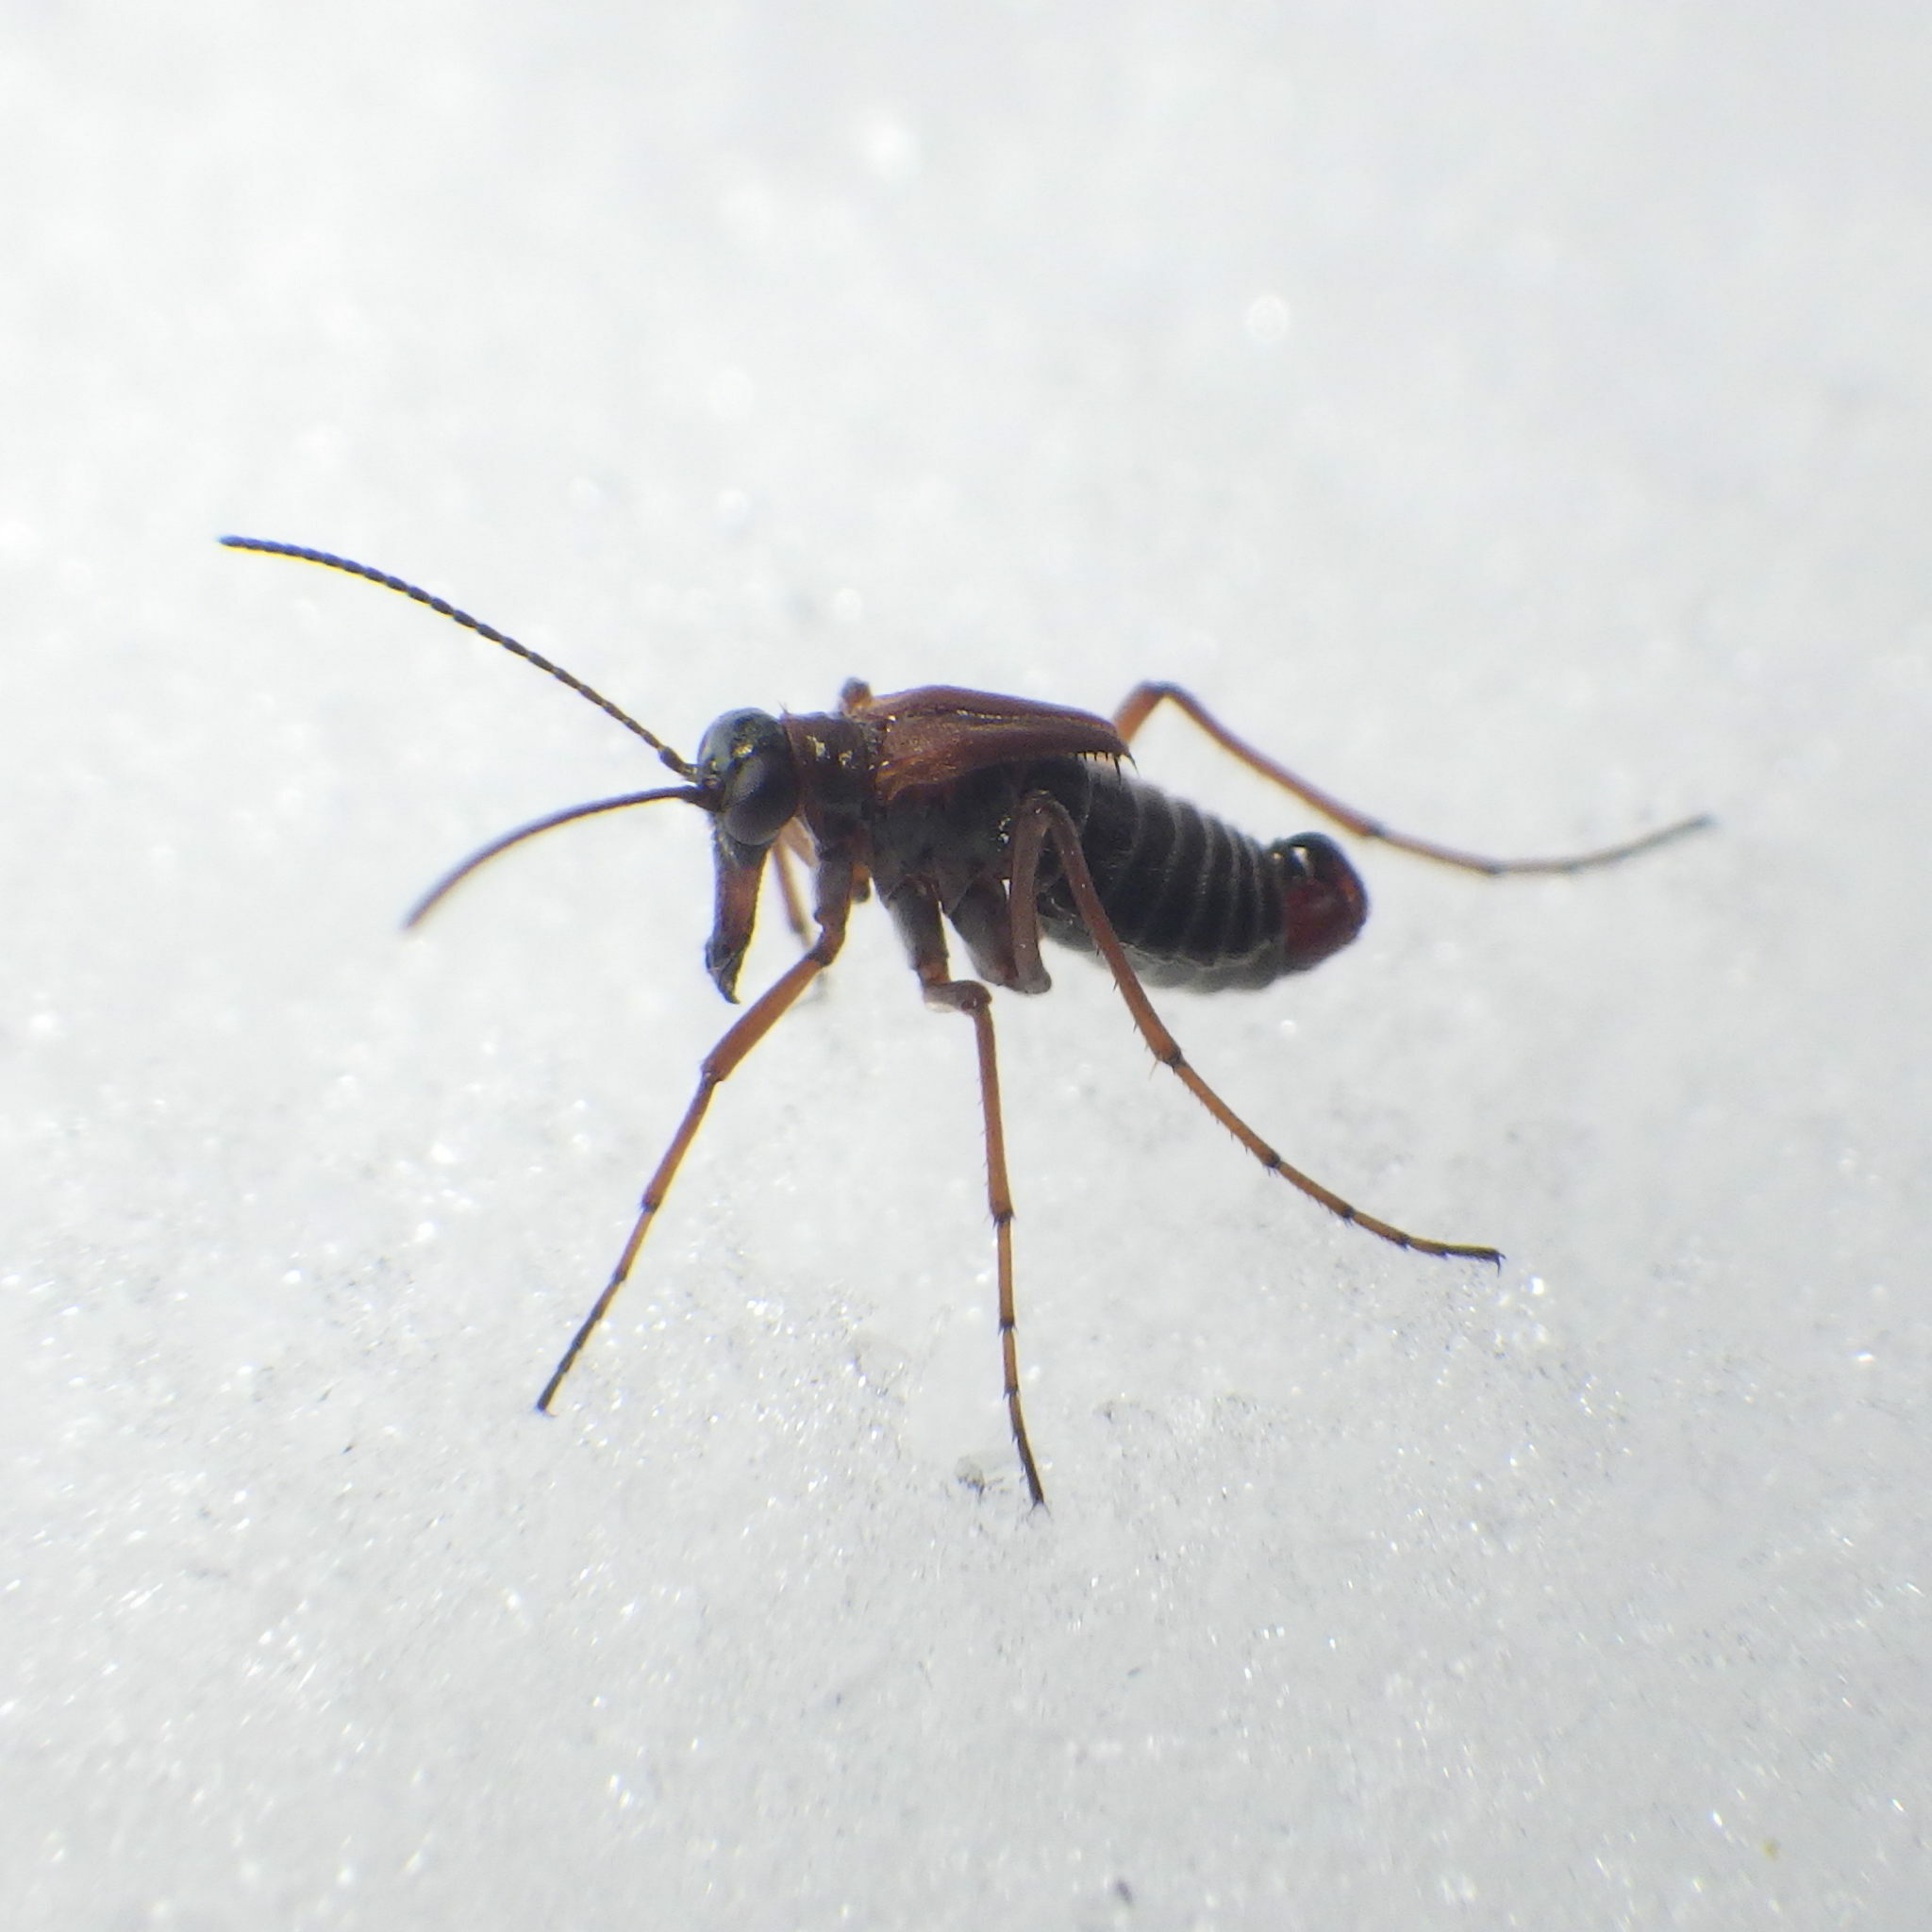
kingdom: Animalia
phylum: Arthropoda
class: Insecta
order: Mecoptera
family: Boreidae
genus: Boreus
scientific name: Boreus nivoriundus
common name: Snow-born boreus
